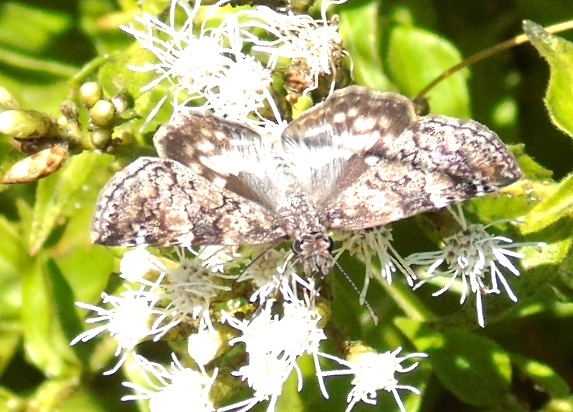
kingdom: Animalia
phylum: Arthropoda
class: Insecta
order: Lepidoptera
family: Hesperiidae
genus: Chiothion
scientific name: Chiothion georgina
